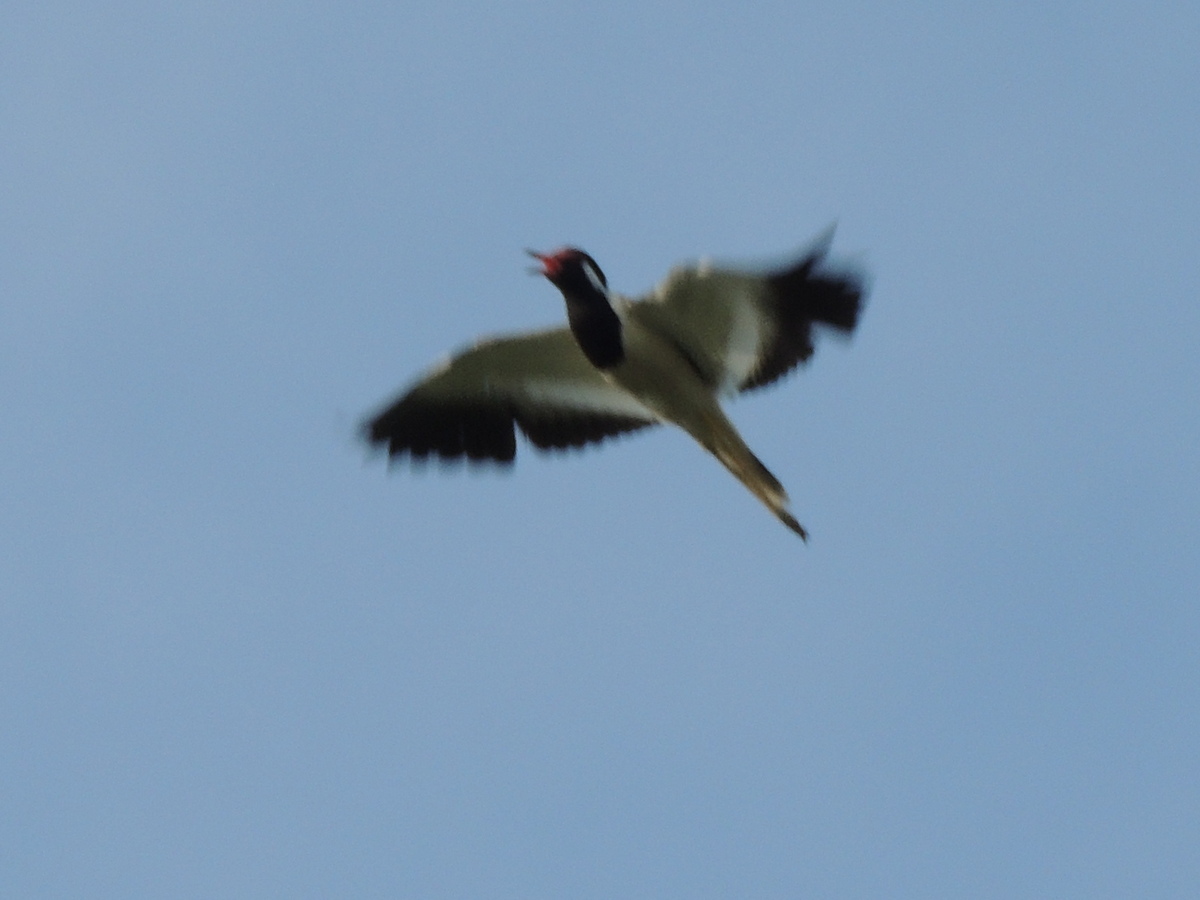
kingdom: Animalia
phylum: Chordata
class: Aves
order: Charadriiformes
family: Charadriidae
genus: Vanellus
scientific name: Vanellus indicus
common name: Red-wattled lapwing
